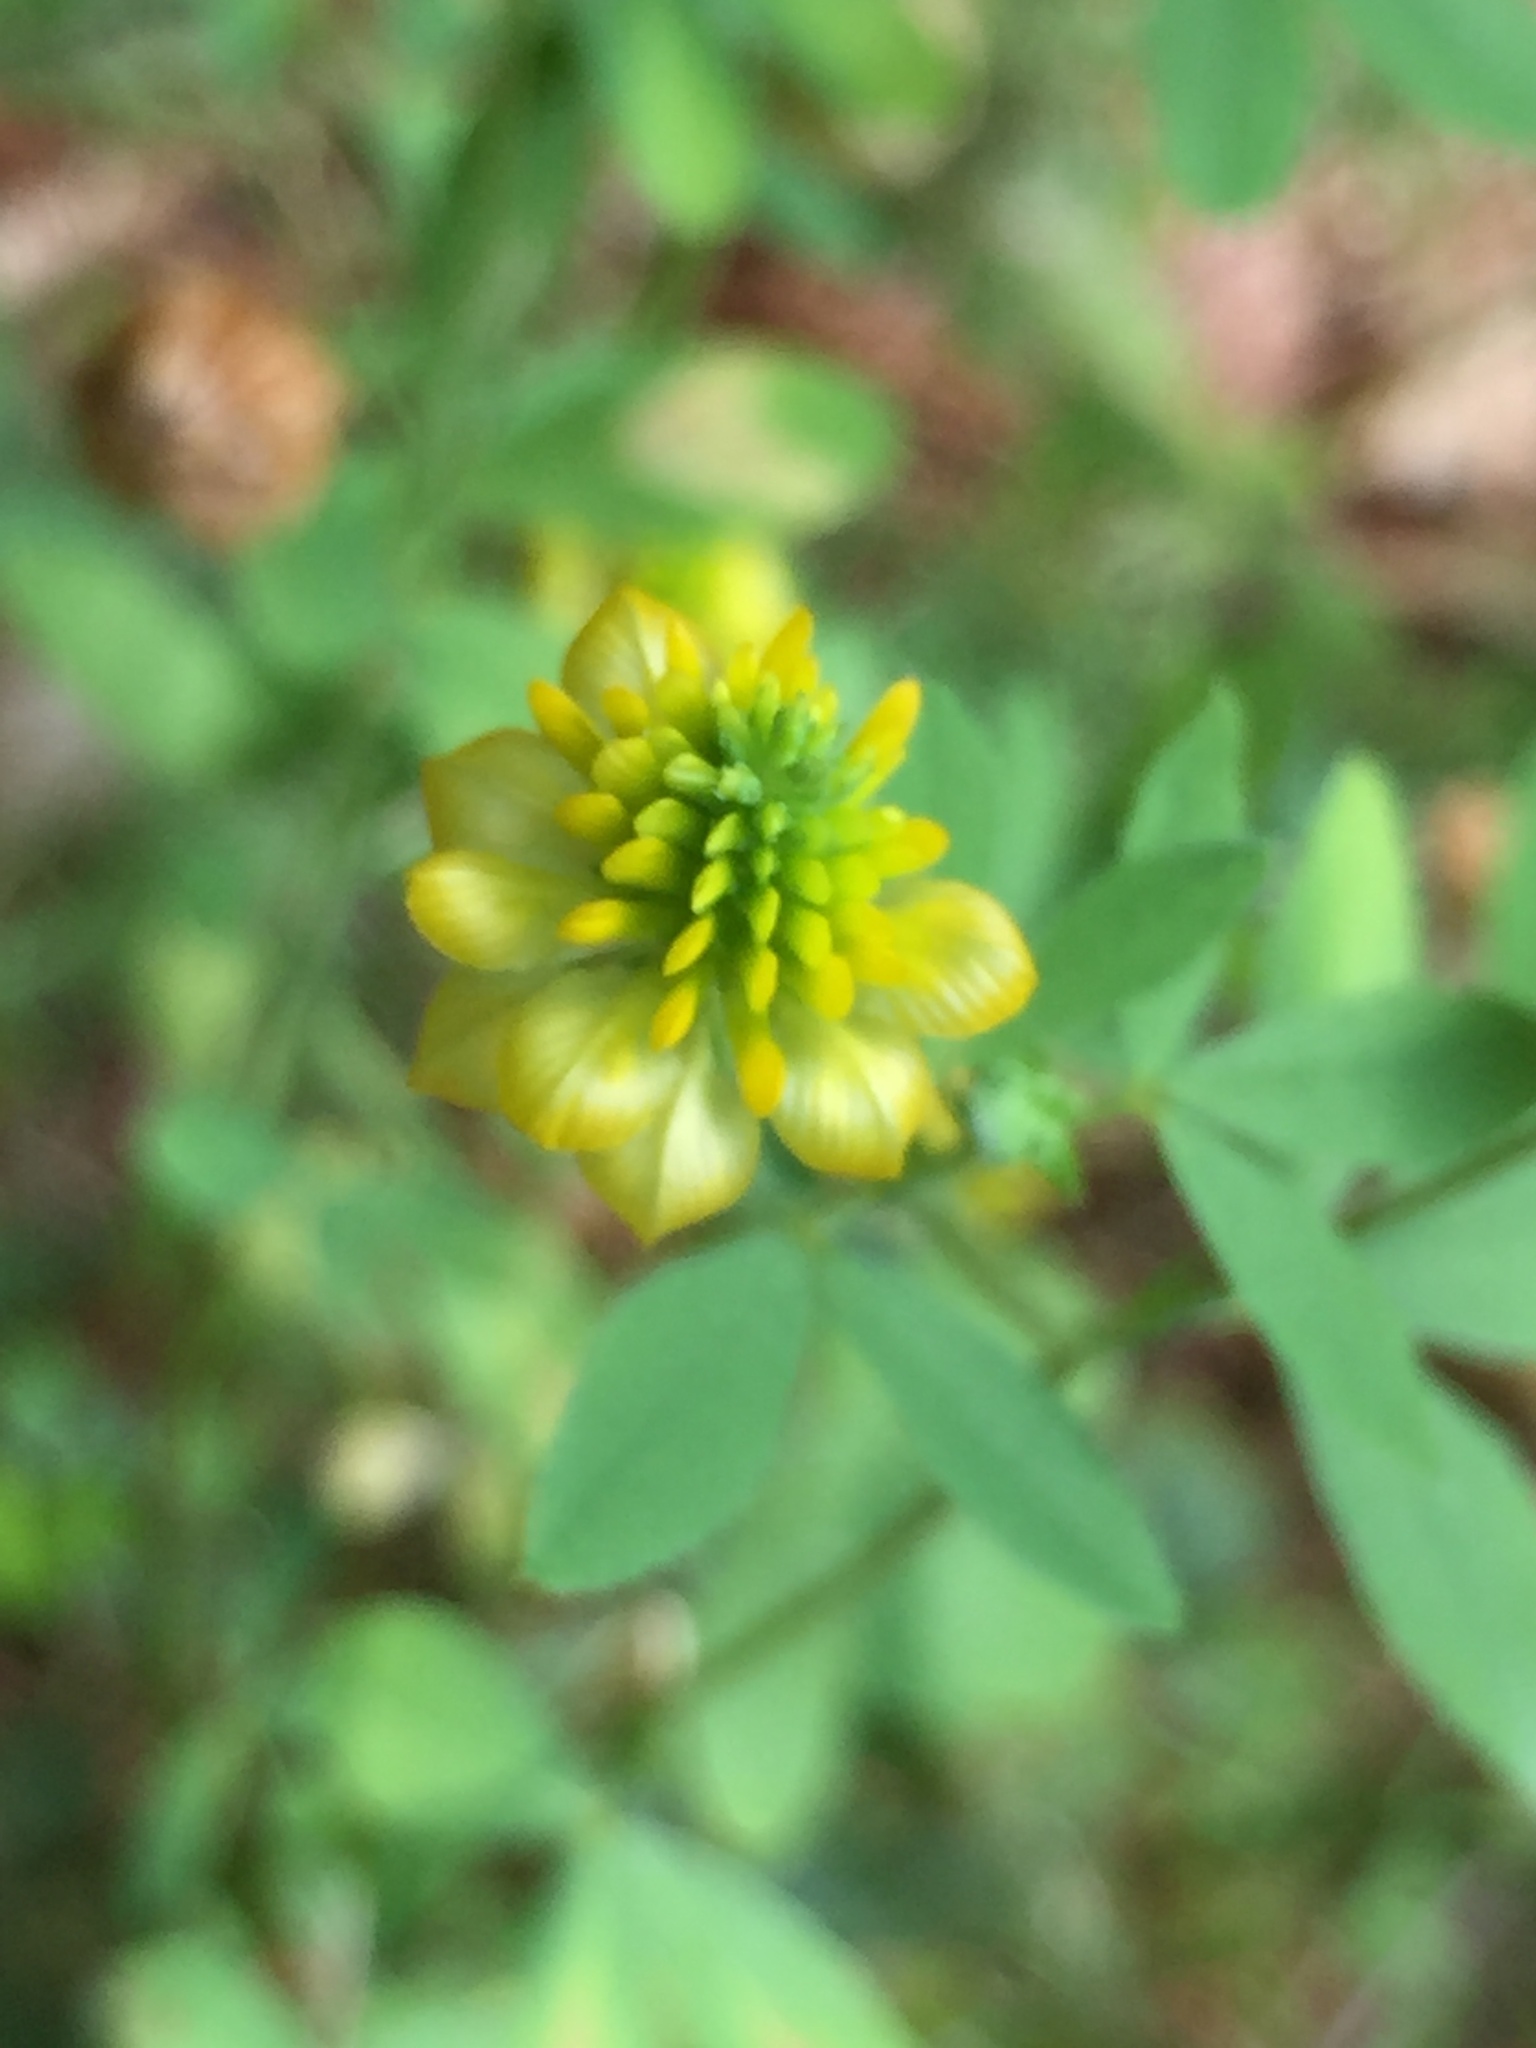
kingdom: Plantae
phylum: Tracheophyta
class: Magnoliopsida
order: Fabales
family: Fabaceae
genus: Trifolium
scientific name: Trifolium aureum
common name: Golden clover
